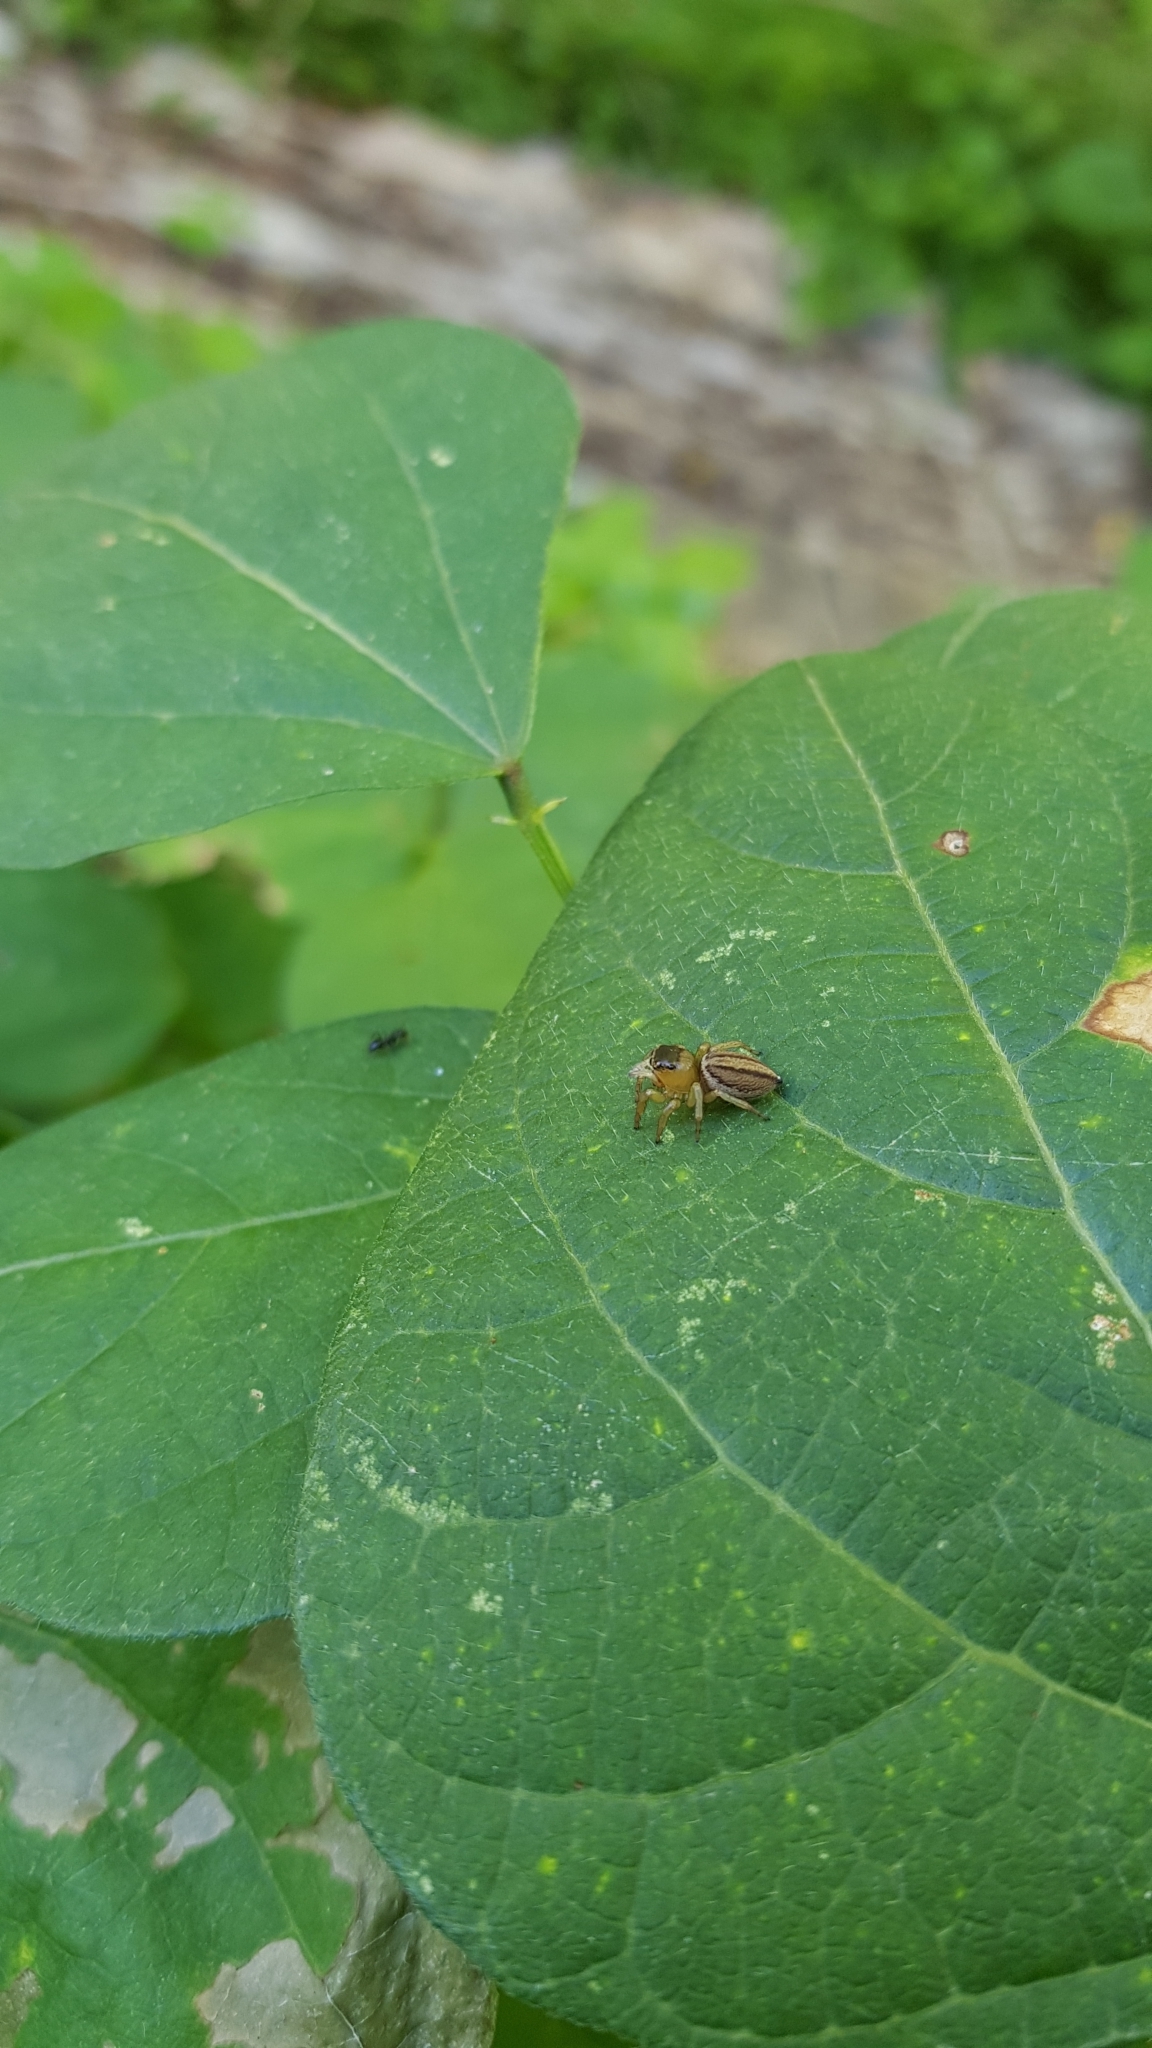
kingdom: Animalia
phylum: Arthropoda
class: Arachnida
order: Araneae
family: Salticidae
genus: Maratus
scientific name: Maratus scutulatus
